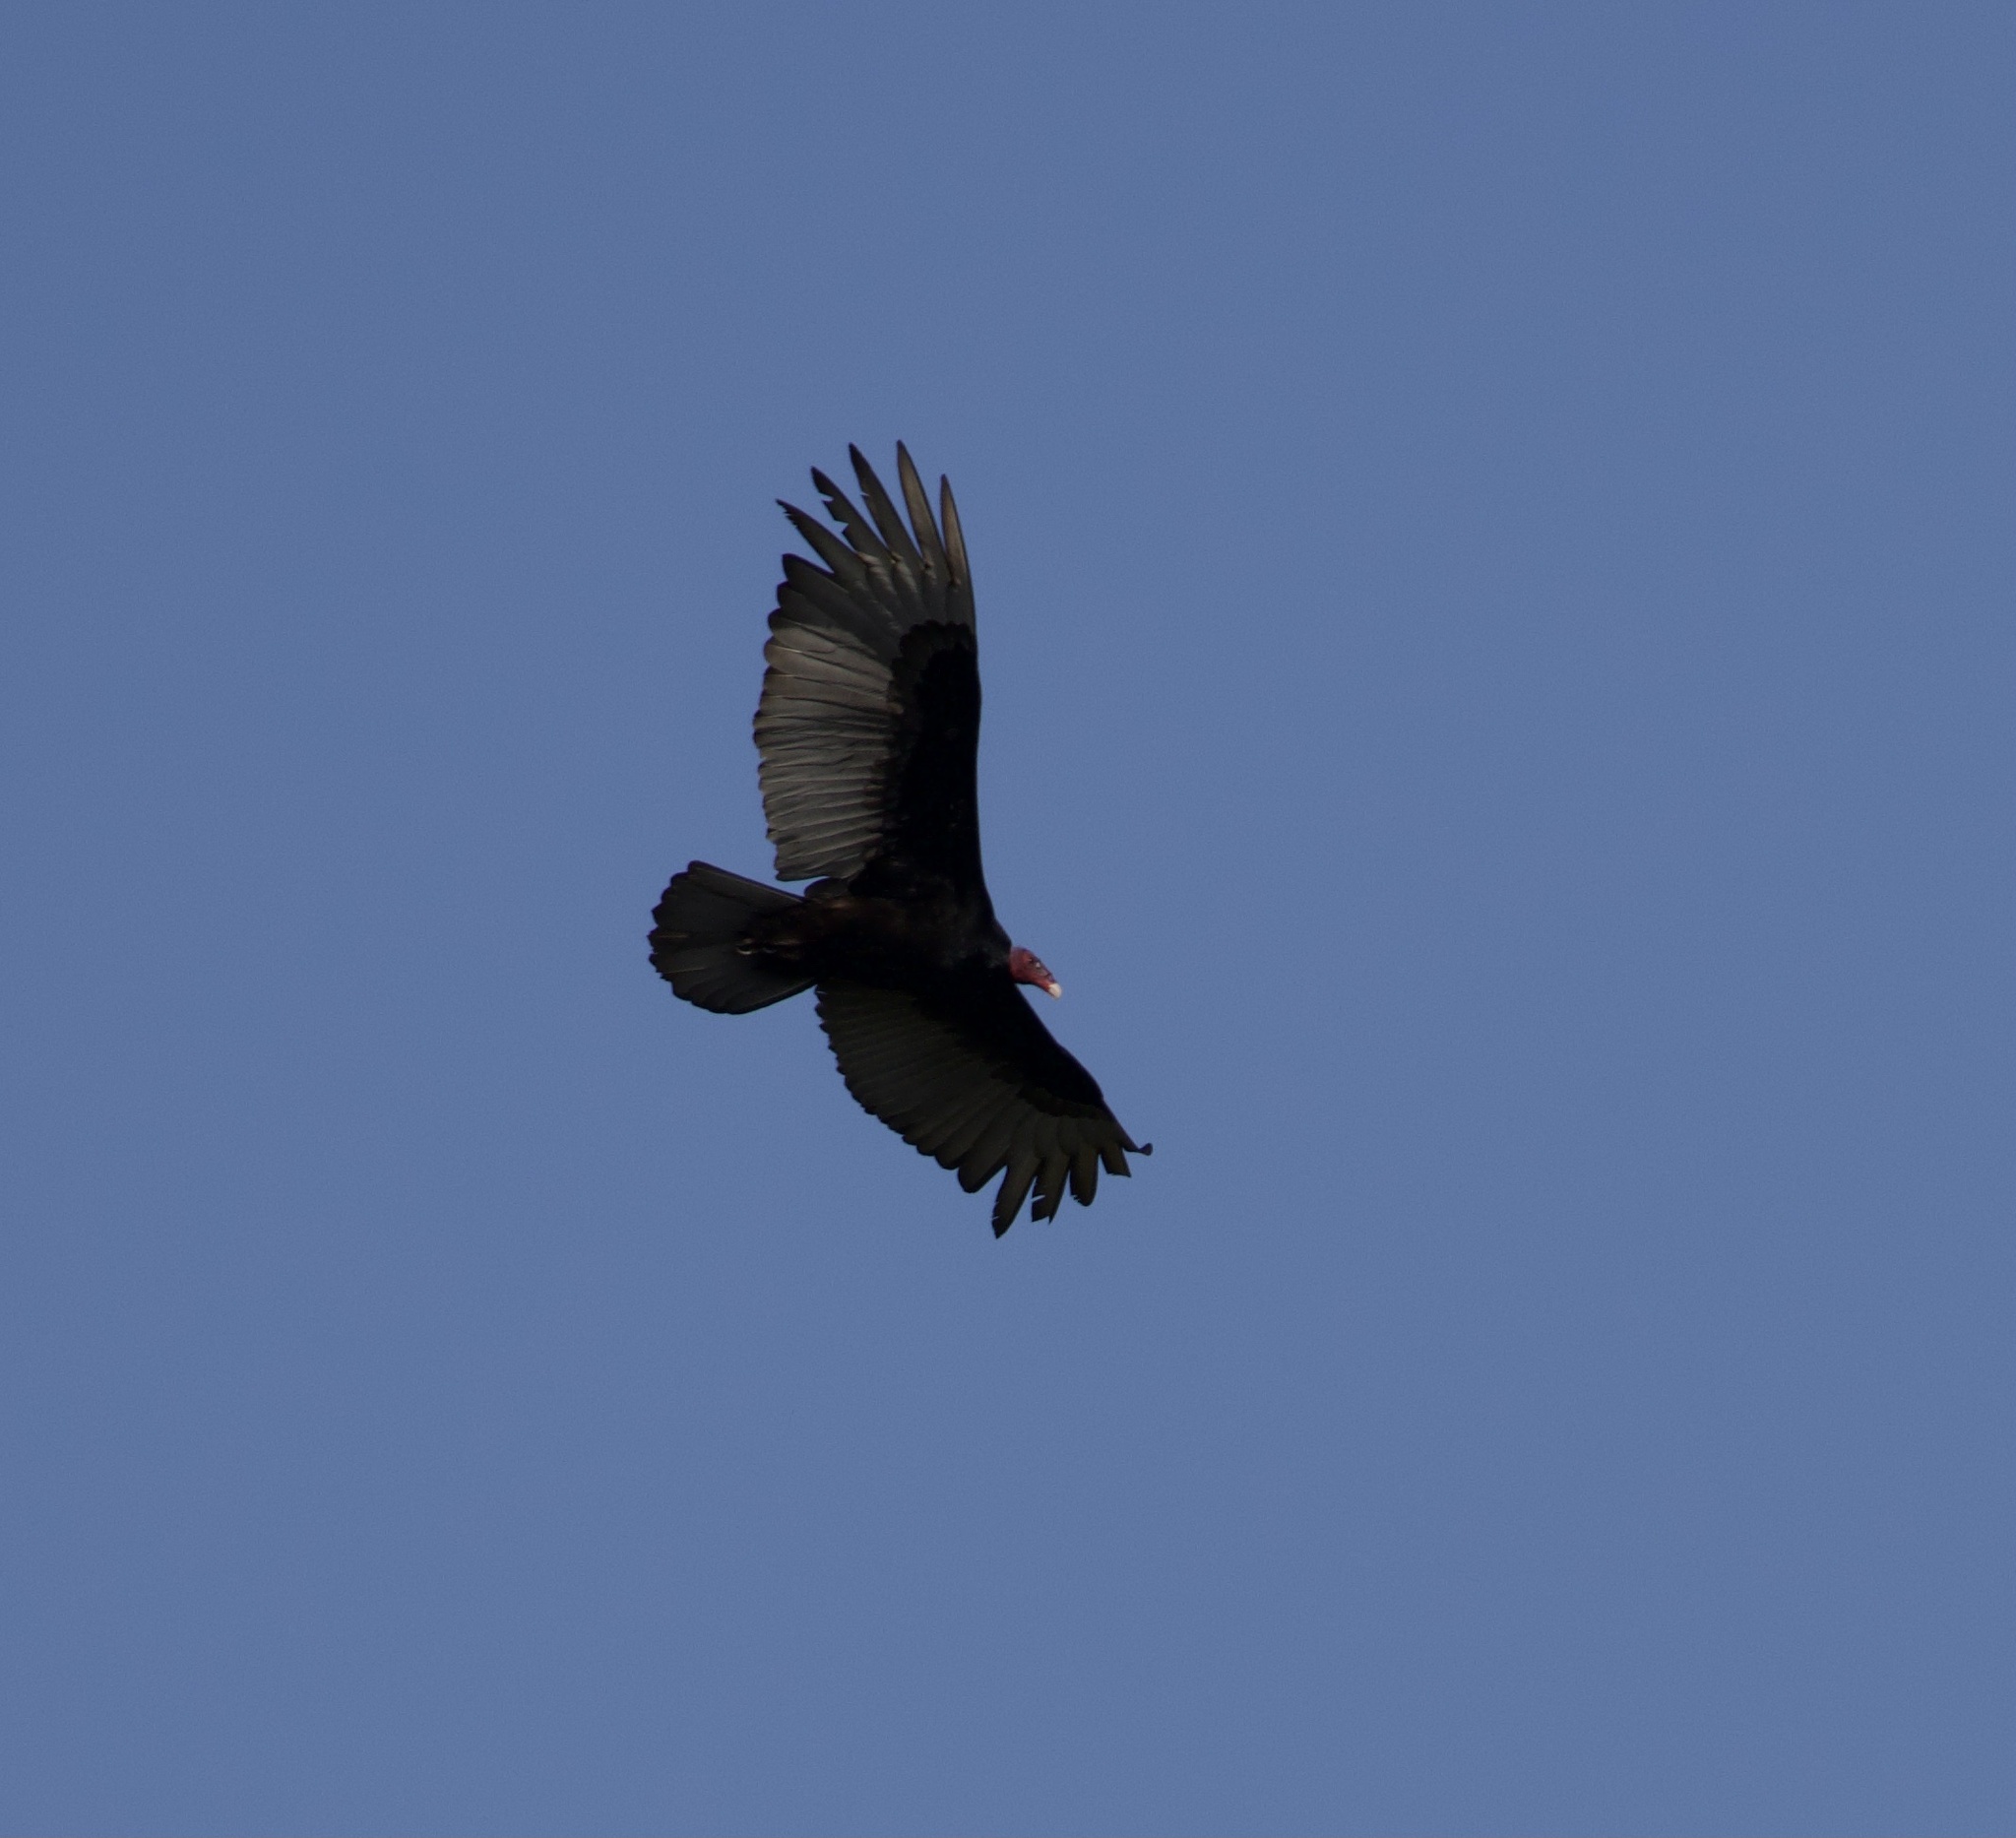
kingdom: Animalia
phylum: Chordata
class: Aves
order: Accipitriformes
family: Cathartidae
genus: Cathartes
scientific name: Cathartes aura
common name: Turkey vulture
